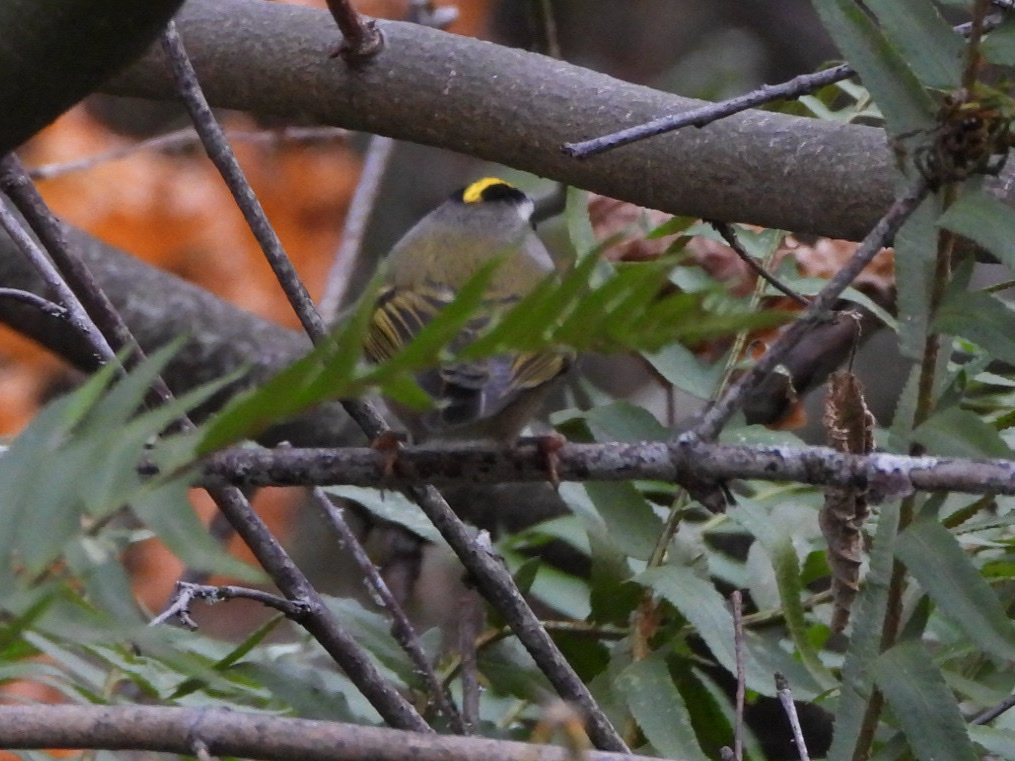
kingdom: Animalia
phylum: Chordata
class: Aves
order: Passeriformes
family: Regulidae
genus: Regulus
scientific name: Regulus satrapa
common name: Golden-crowned kinglet
